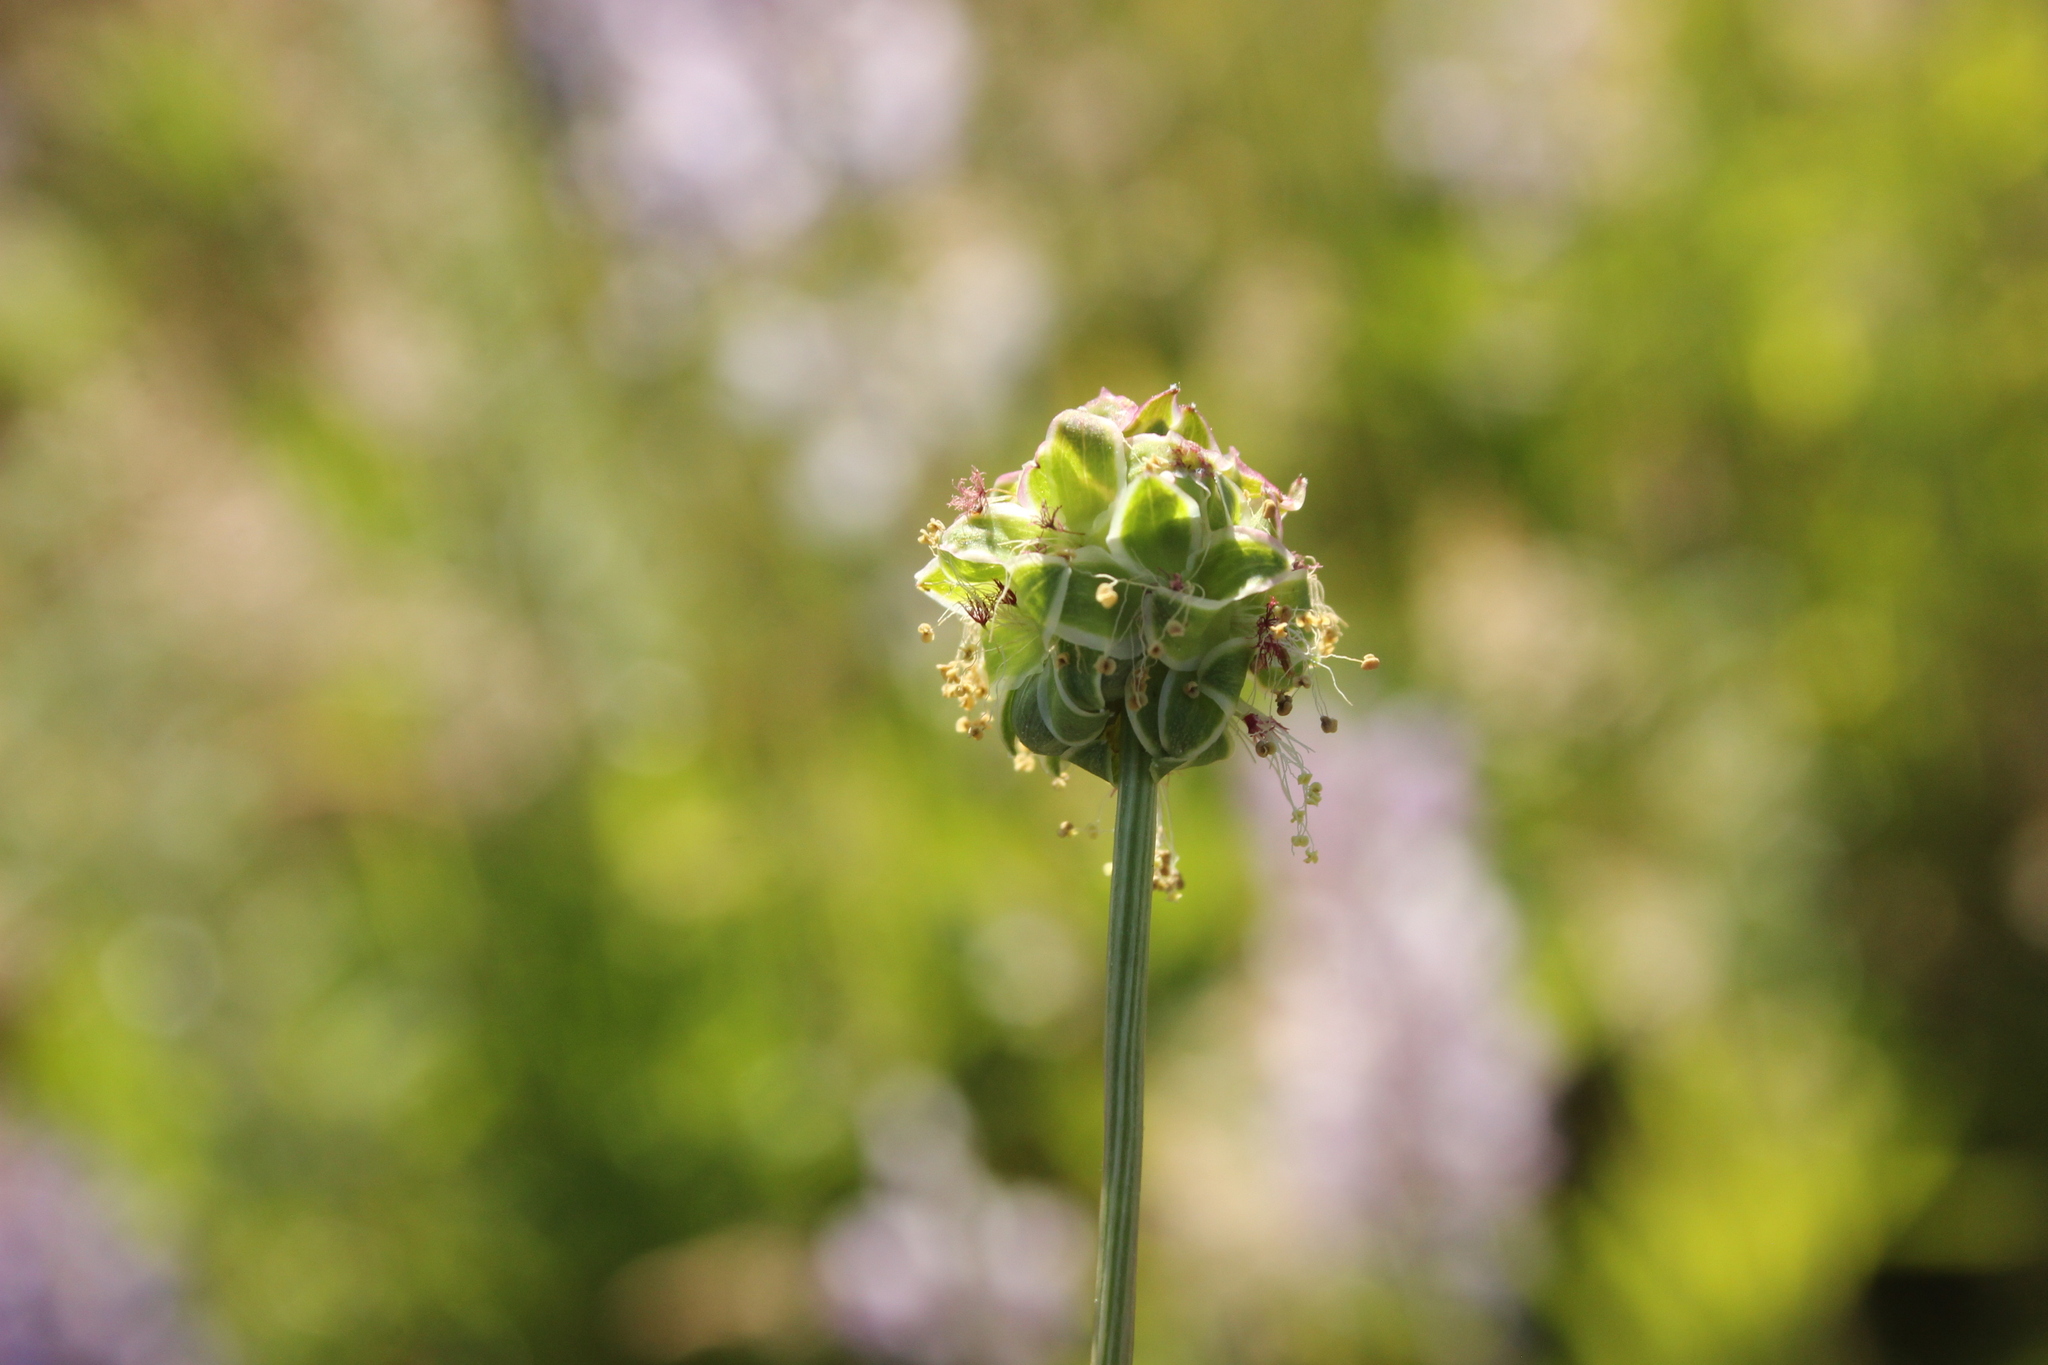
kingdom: Plantae
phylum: Tracheophyta
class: Magnoliopsida
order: Rosales
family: Rosaceae
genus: Poterium
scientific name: Poterium sanguisorba
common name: Salad burnet
